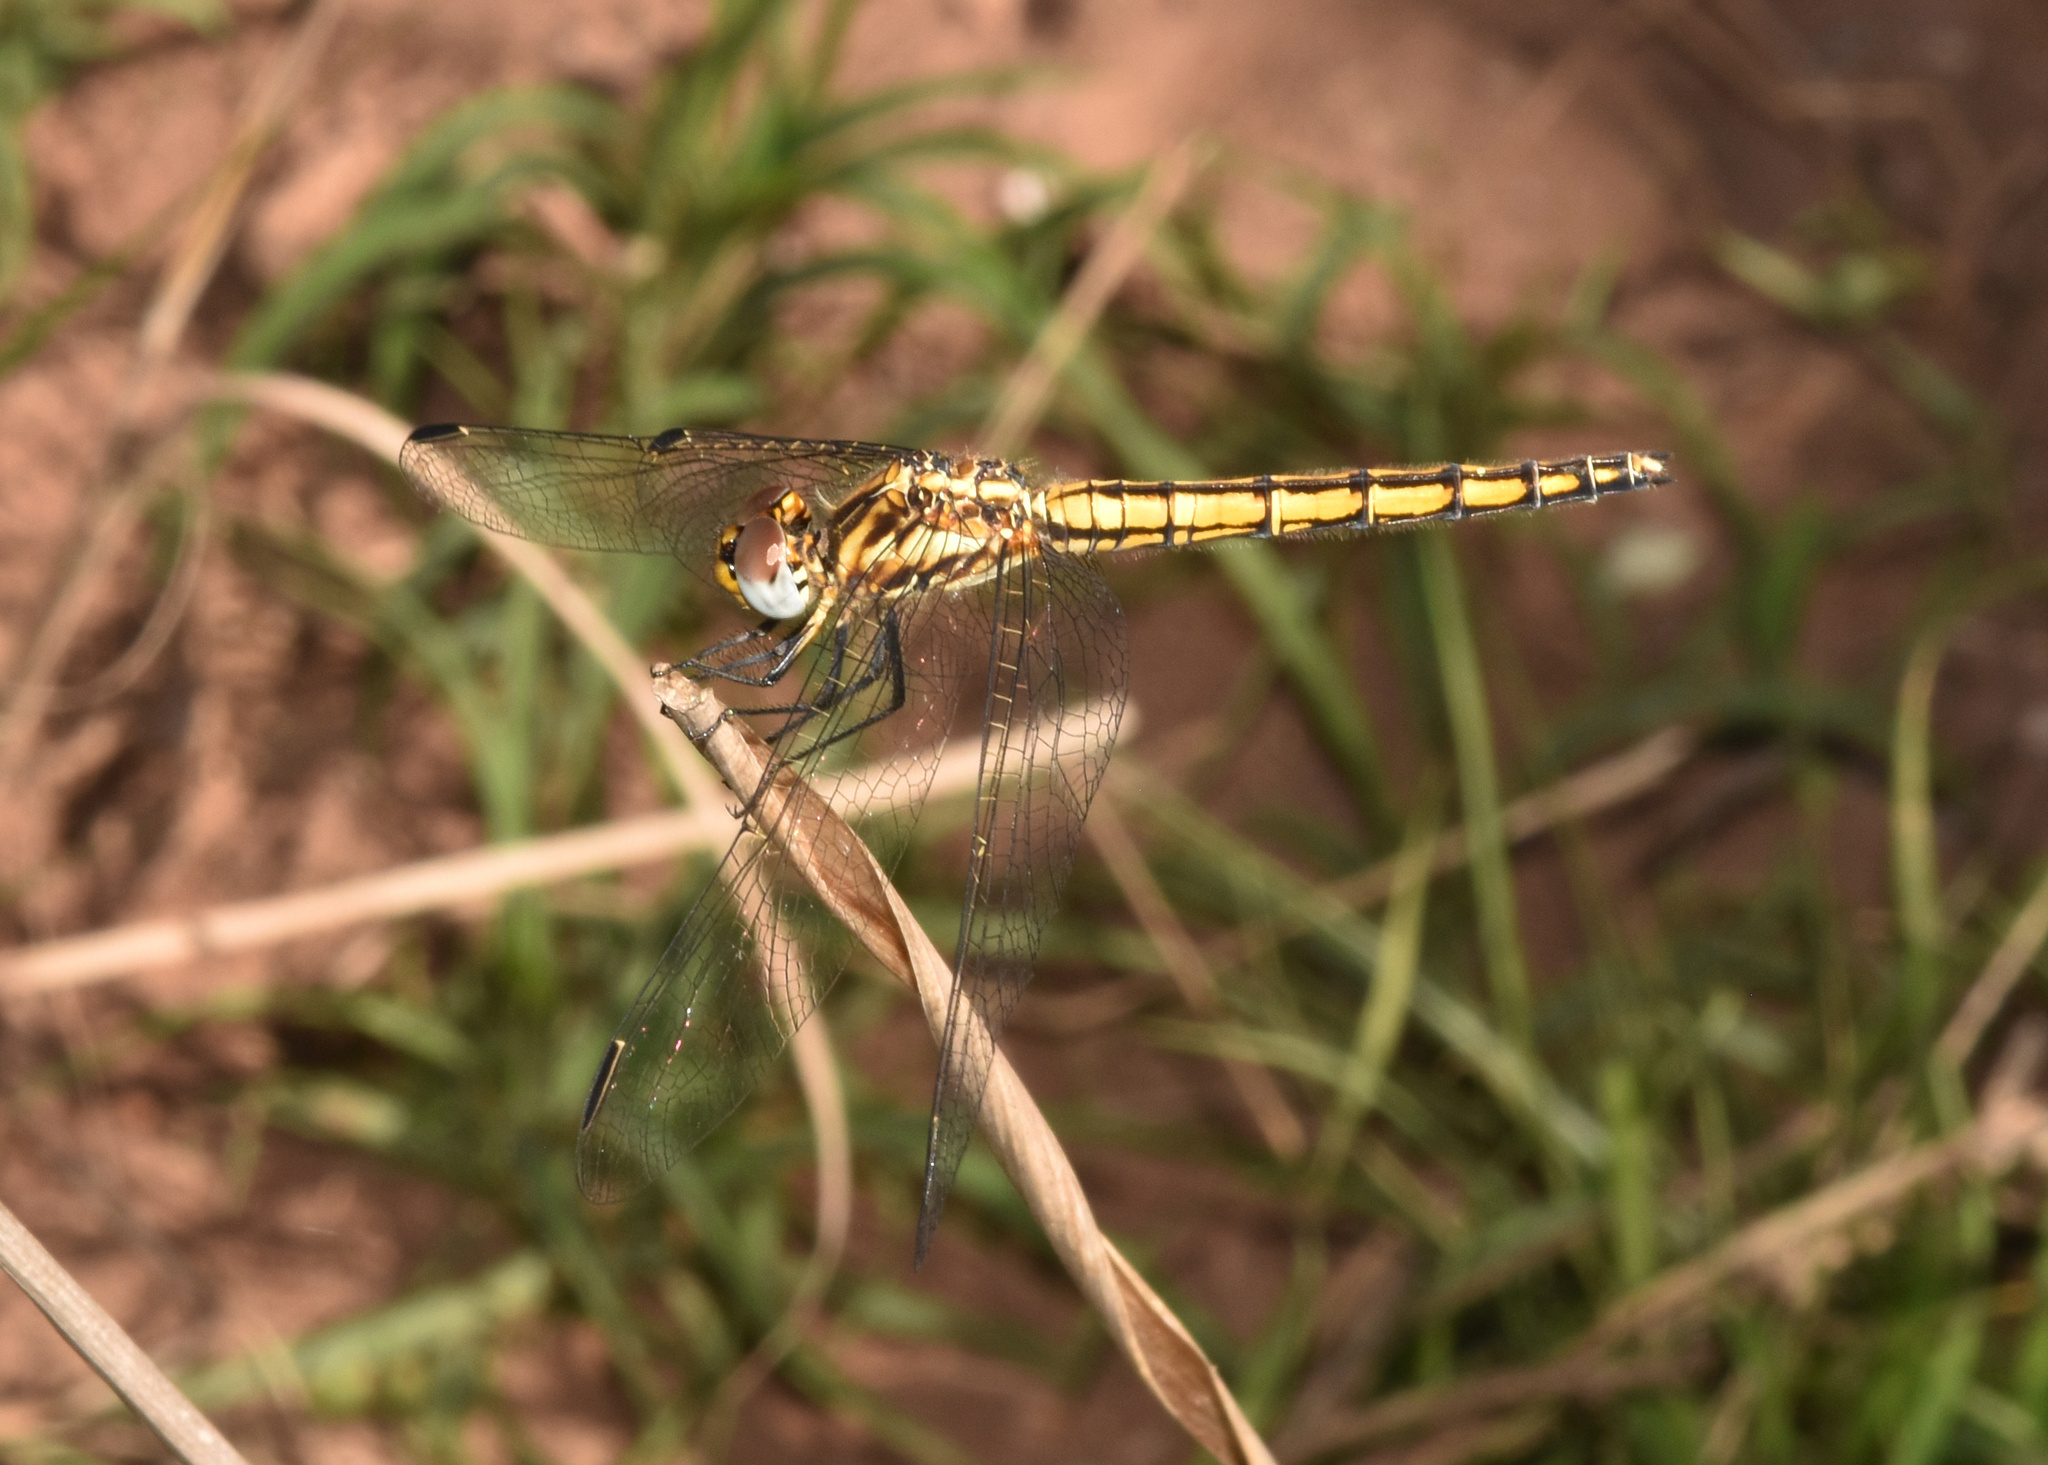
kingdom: Animalia
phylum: Arthropoda
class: Insecta
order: Odonata
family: Libellulidae
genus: Trithemis
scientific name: Trithemis furva
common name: Dark dropwing
